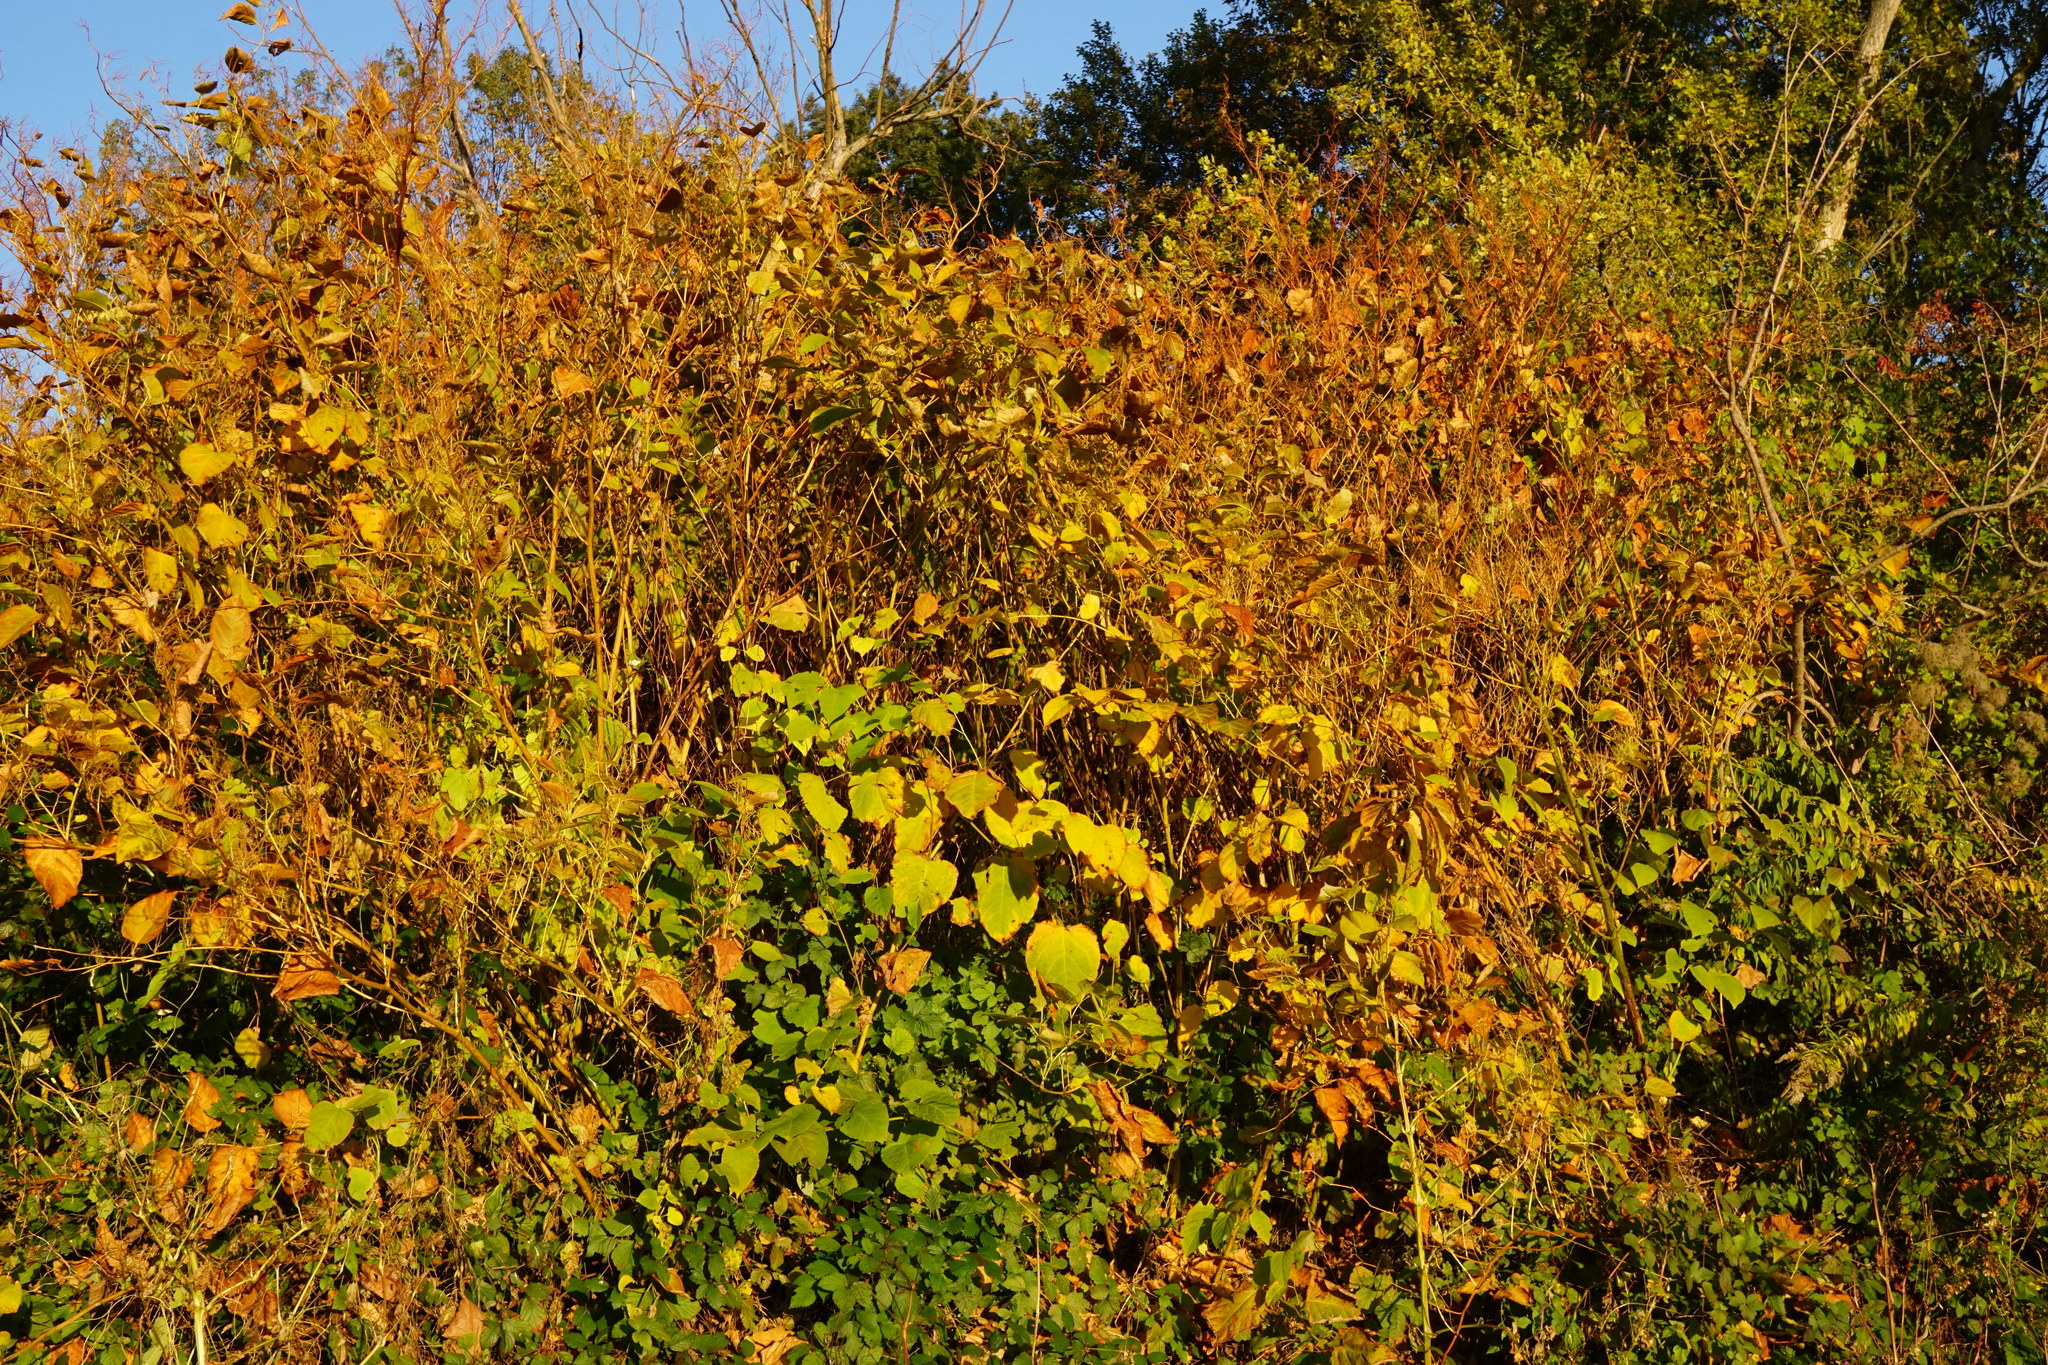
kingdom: Plantae
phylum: Tracheophyta
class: Magnoliopsida
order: Caryophyllales
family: Polygonaceae
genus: Reynoutria
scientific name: Reynoutria bohemica
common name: Bohemian knotweed
